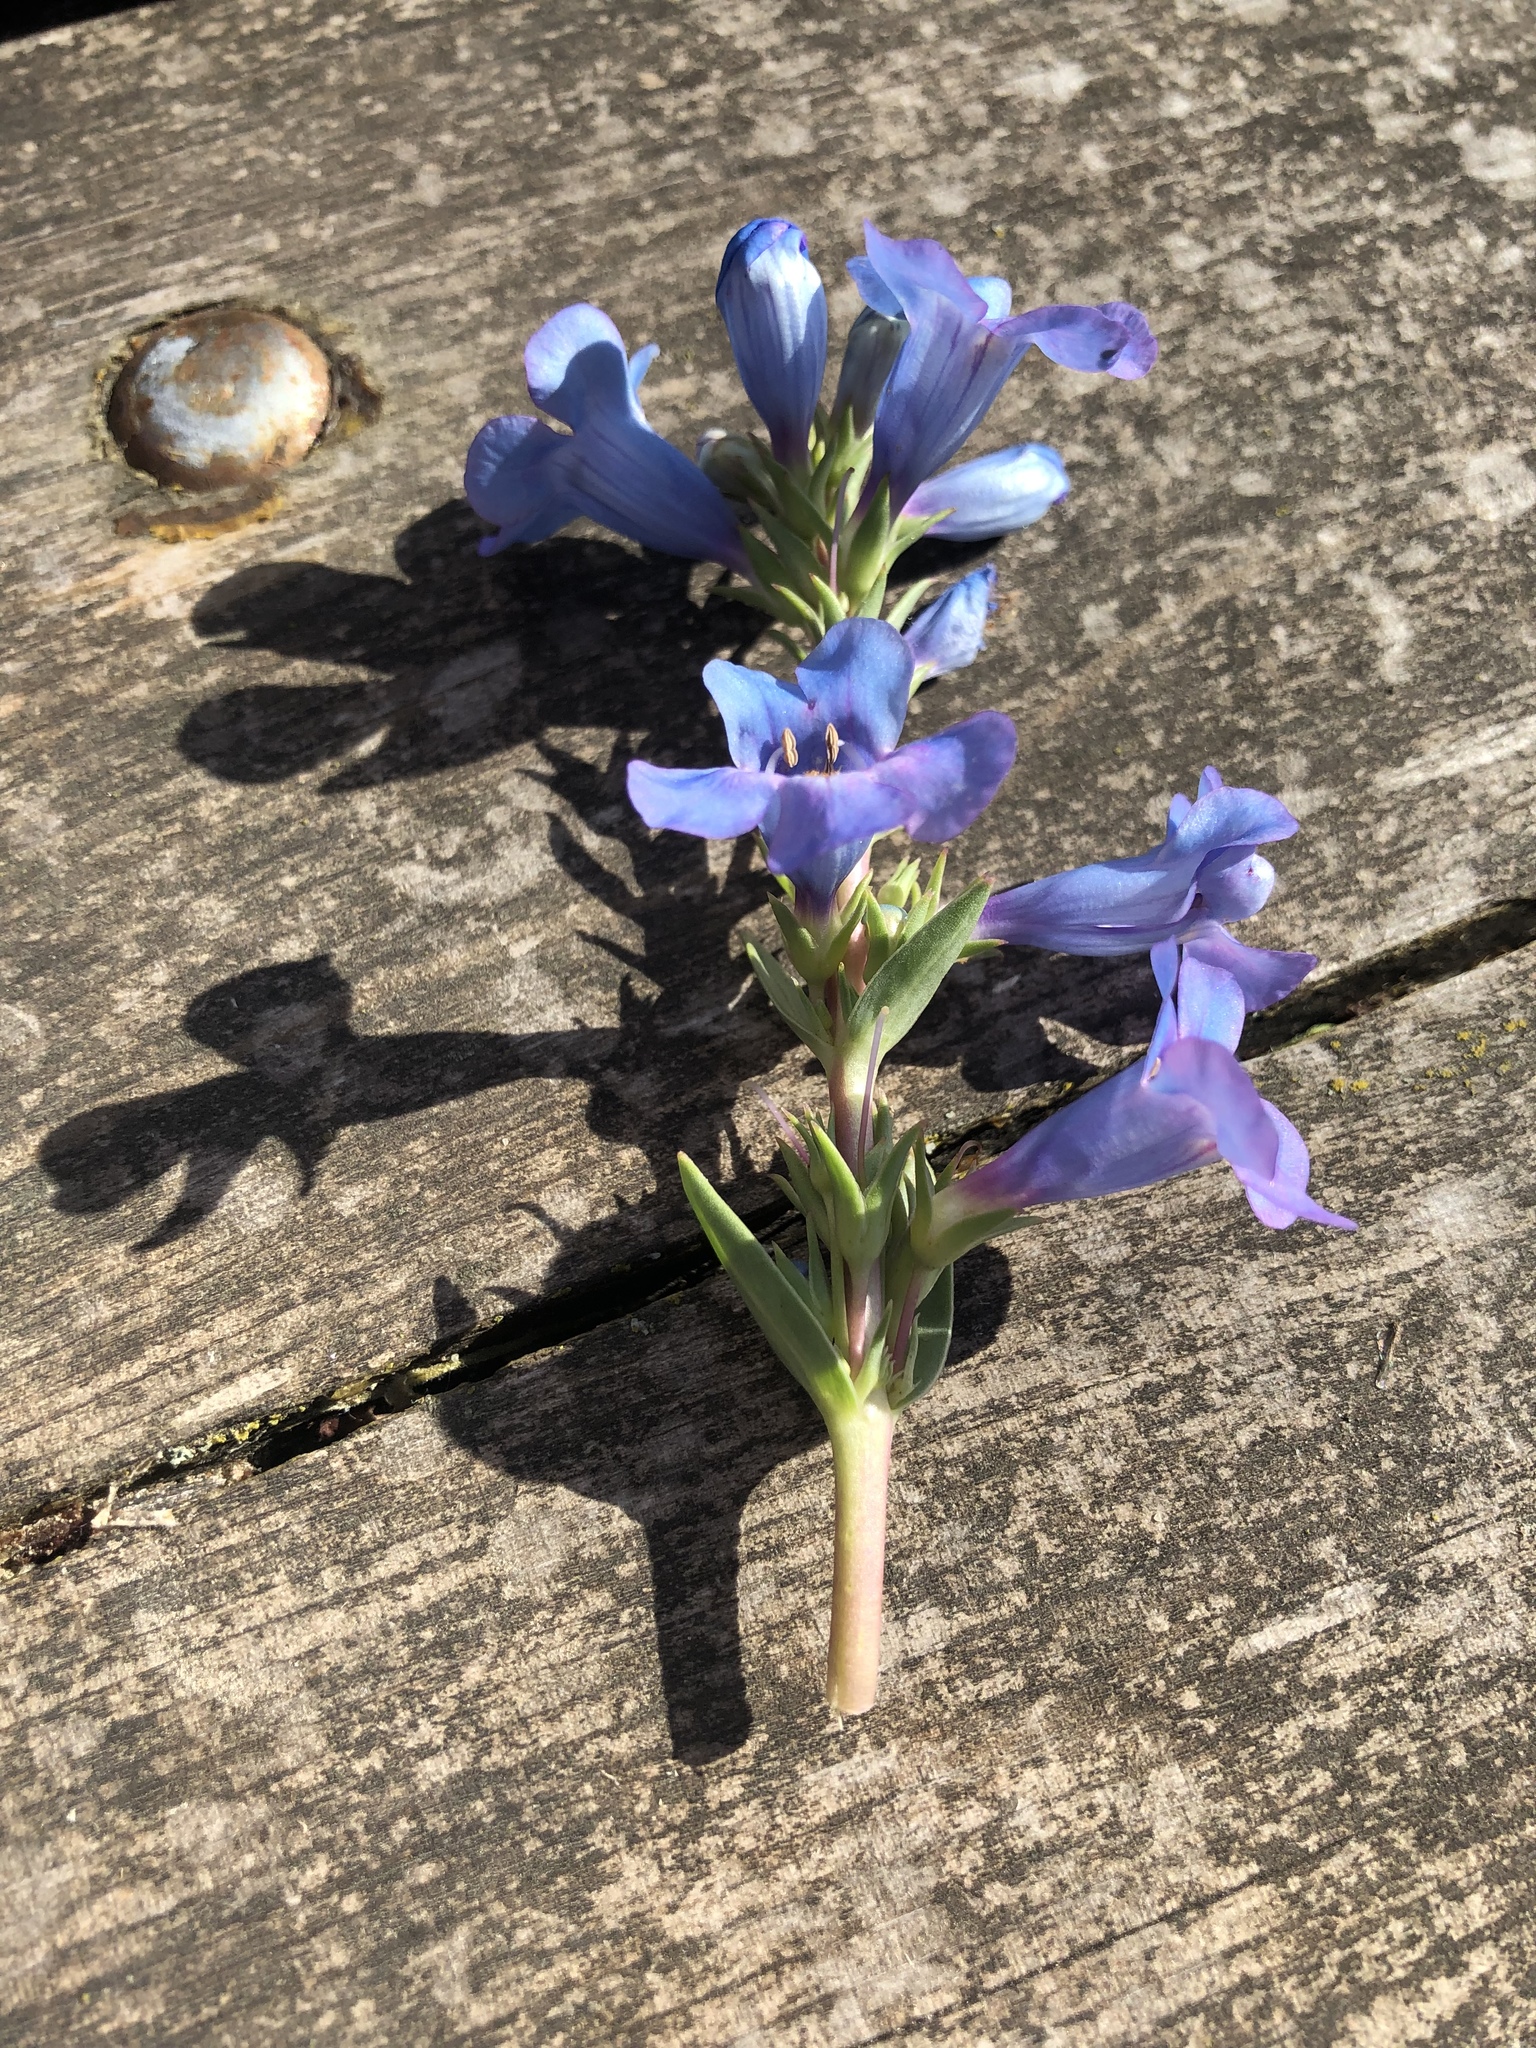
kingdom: Plantae
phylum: Tracheophyta
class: Magnoliopsida
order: Lamiales
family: Plantaginaceae
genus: Penstemon
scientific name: Penstemon angustifolius
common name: Narrow beardtongue
